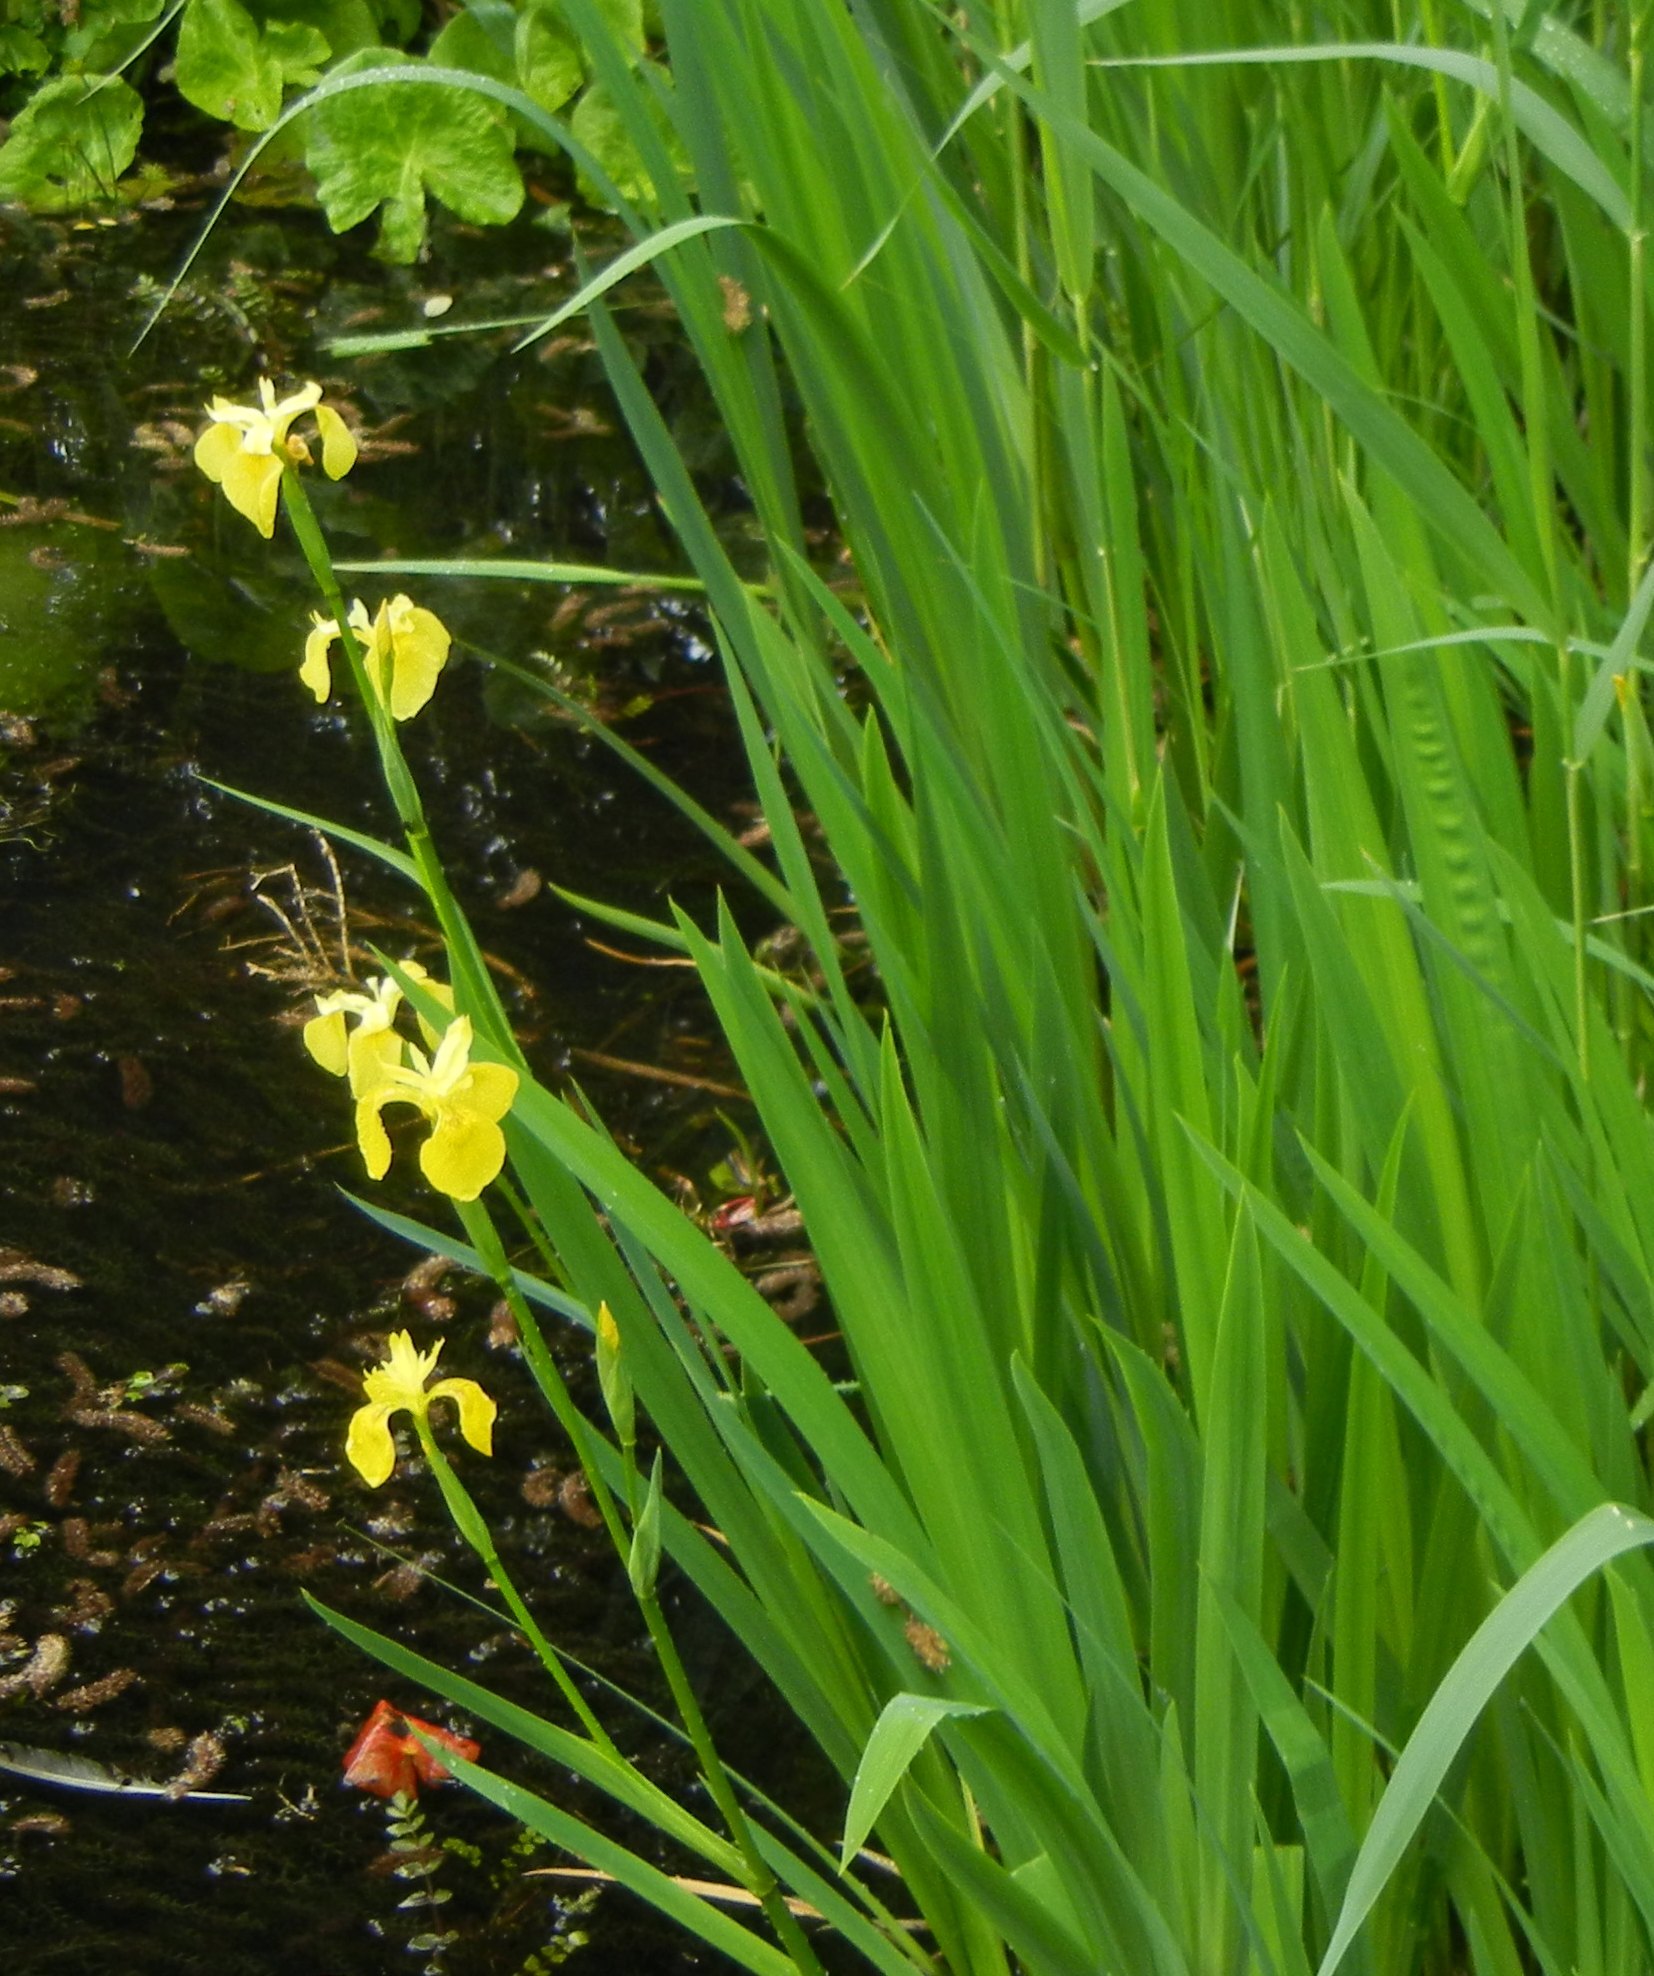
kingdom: Plantae
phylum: Tracheophyta
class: Liliopsida
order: Asparagales
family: Iridaceae
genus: Iris
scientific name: Iris pseudacorus
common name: Yellow flag
